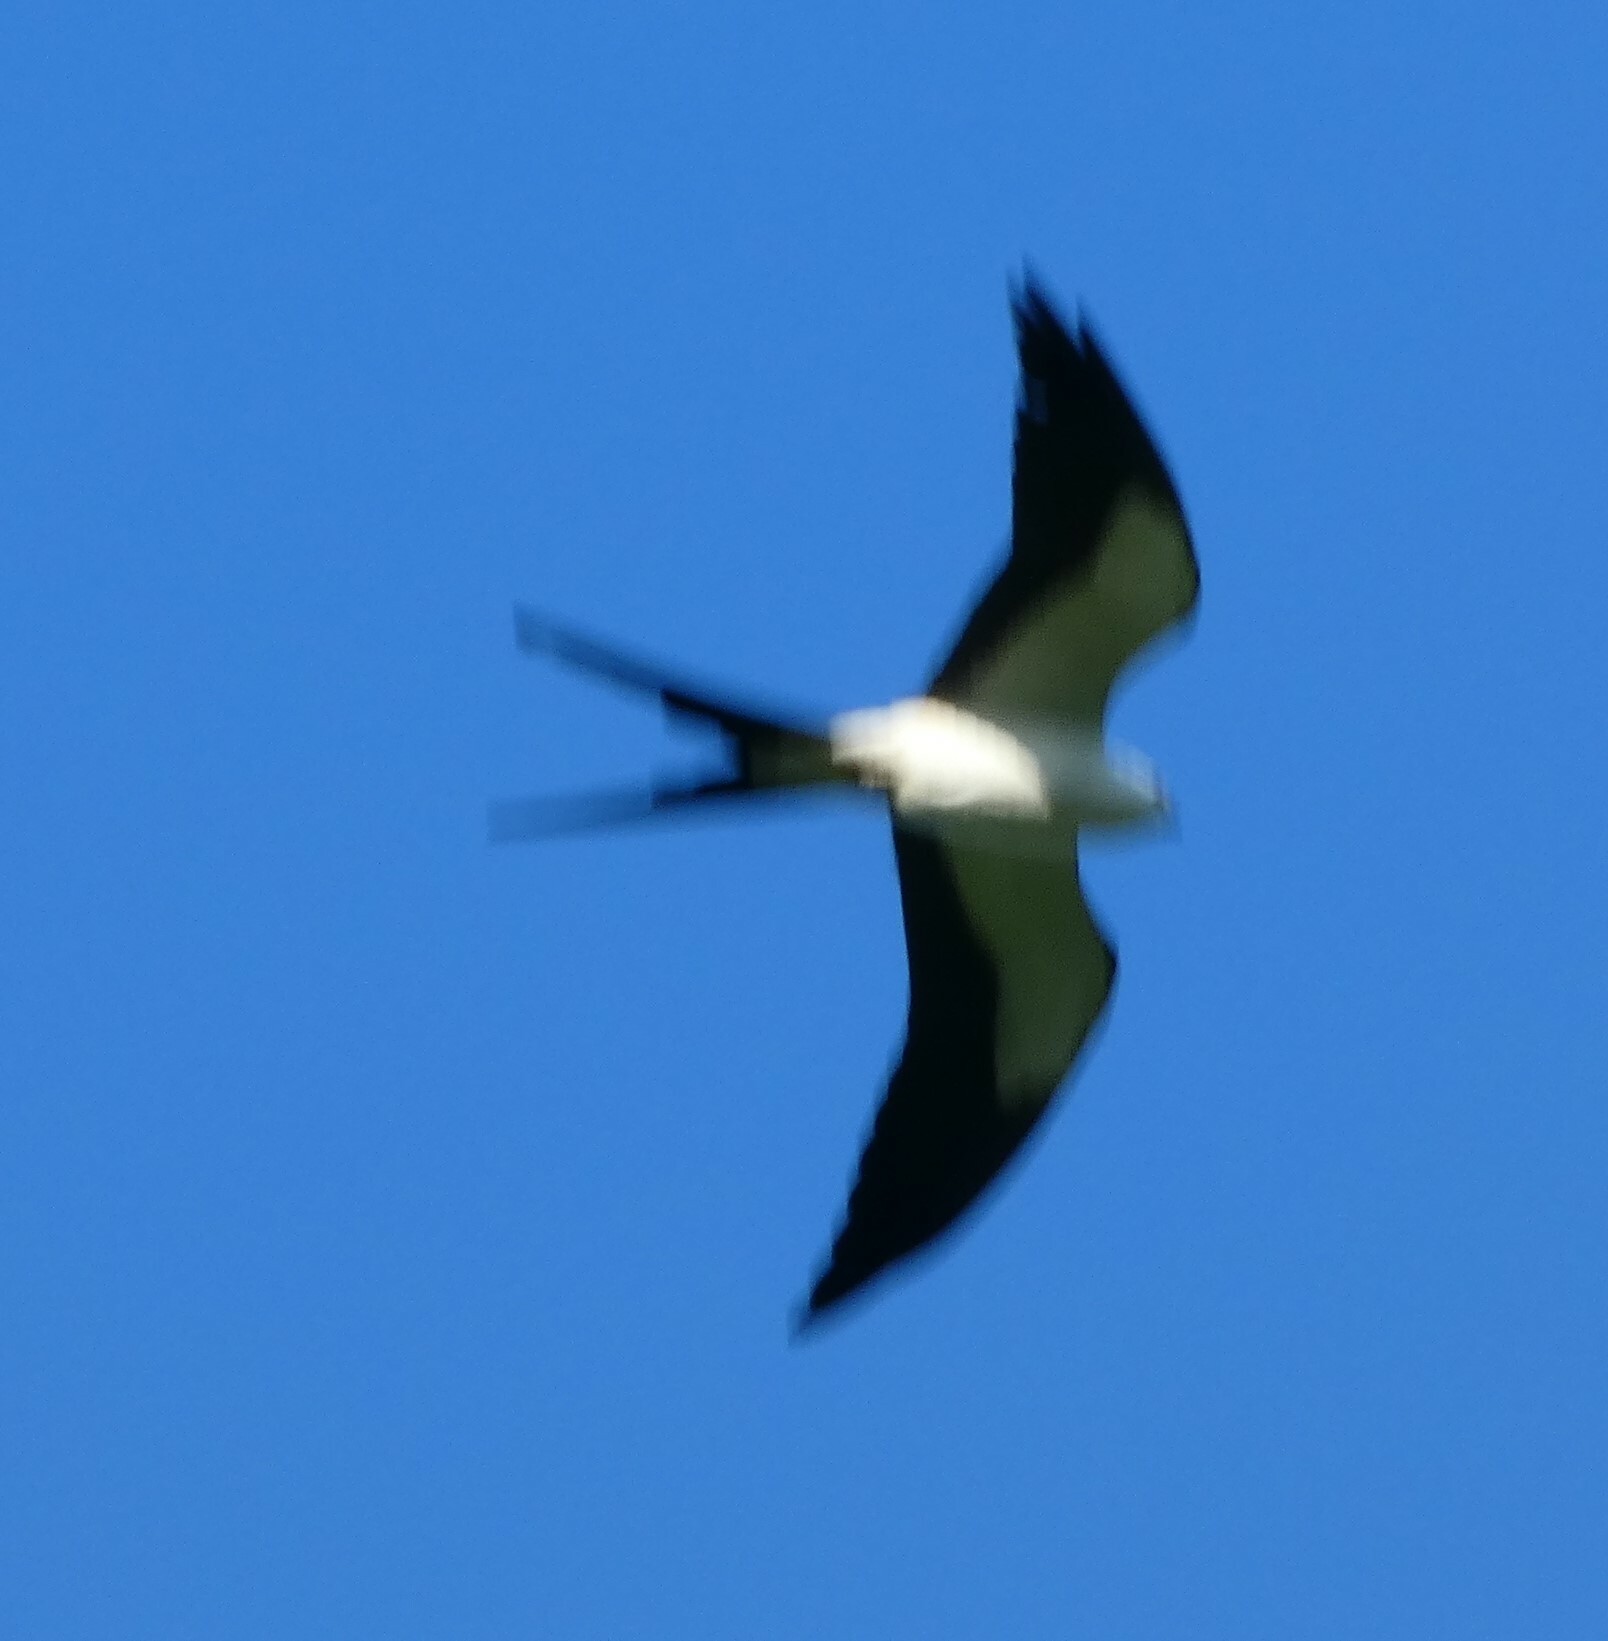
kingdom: Animalia
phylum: Chordata
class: Aves
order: Accipitriformes
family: Accipitridae
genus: Elanoides
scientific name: Elanoides forficatus
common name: Swallow-tailed kite
